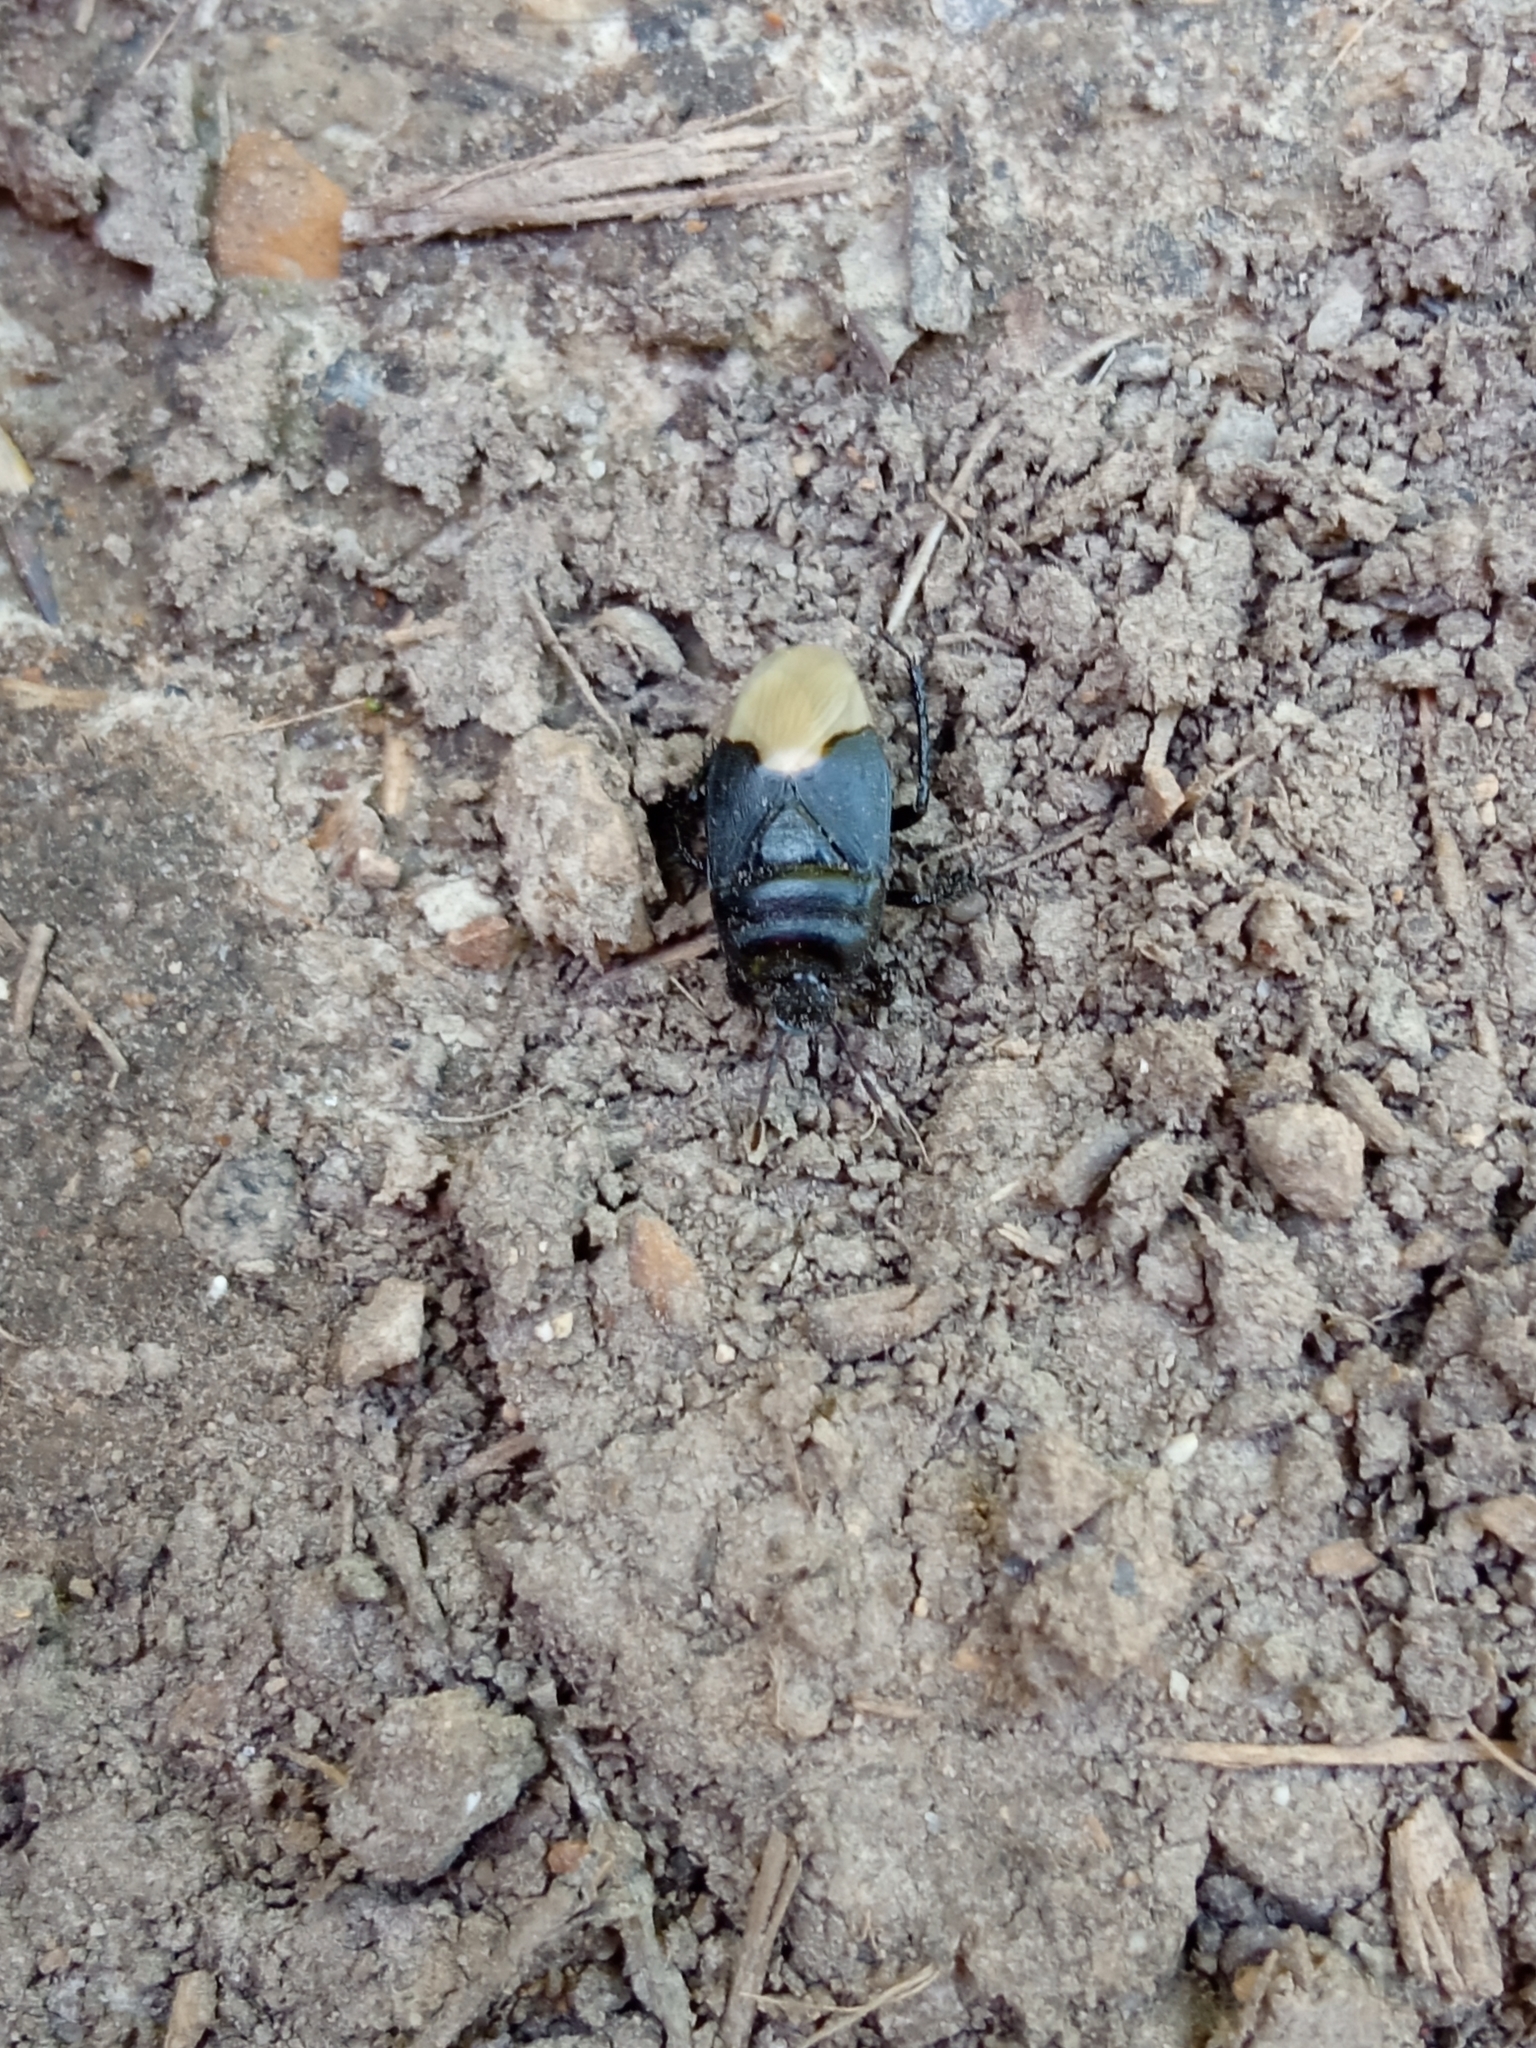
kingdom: Animalia
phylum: Arthropoda
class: Insecta
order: Hemiptera
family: Cydnidae
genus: Cydnus
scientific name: Cydnus aterrimus
